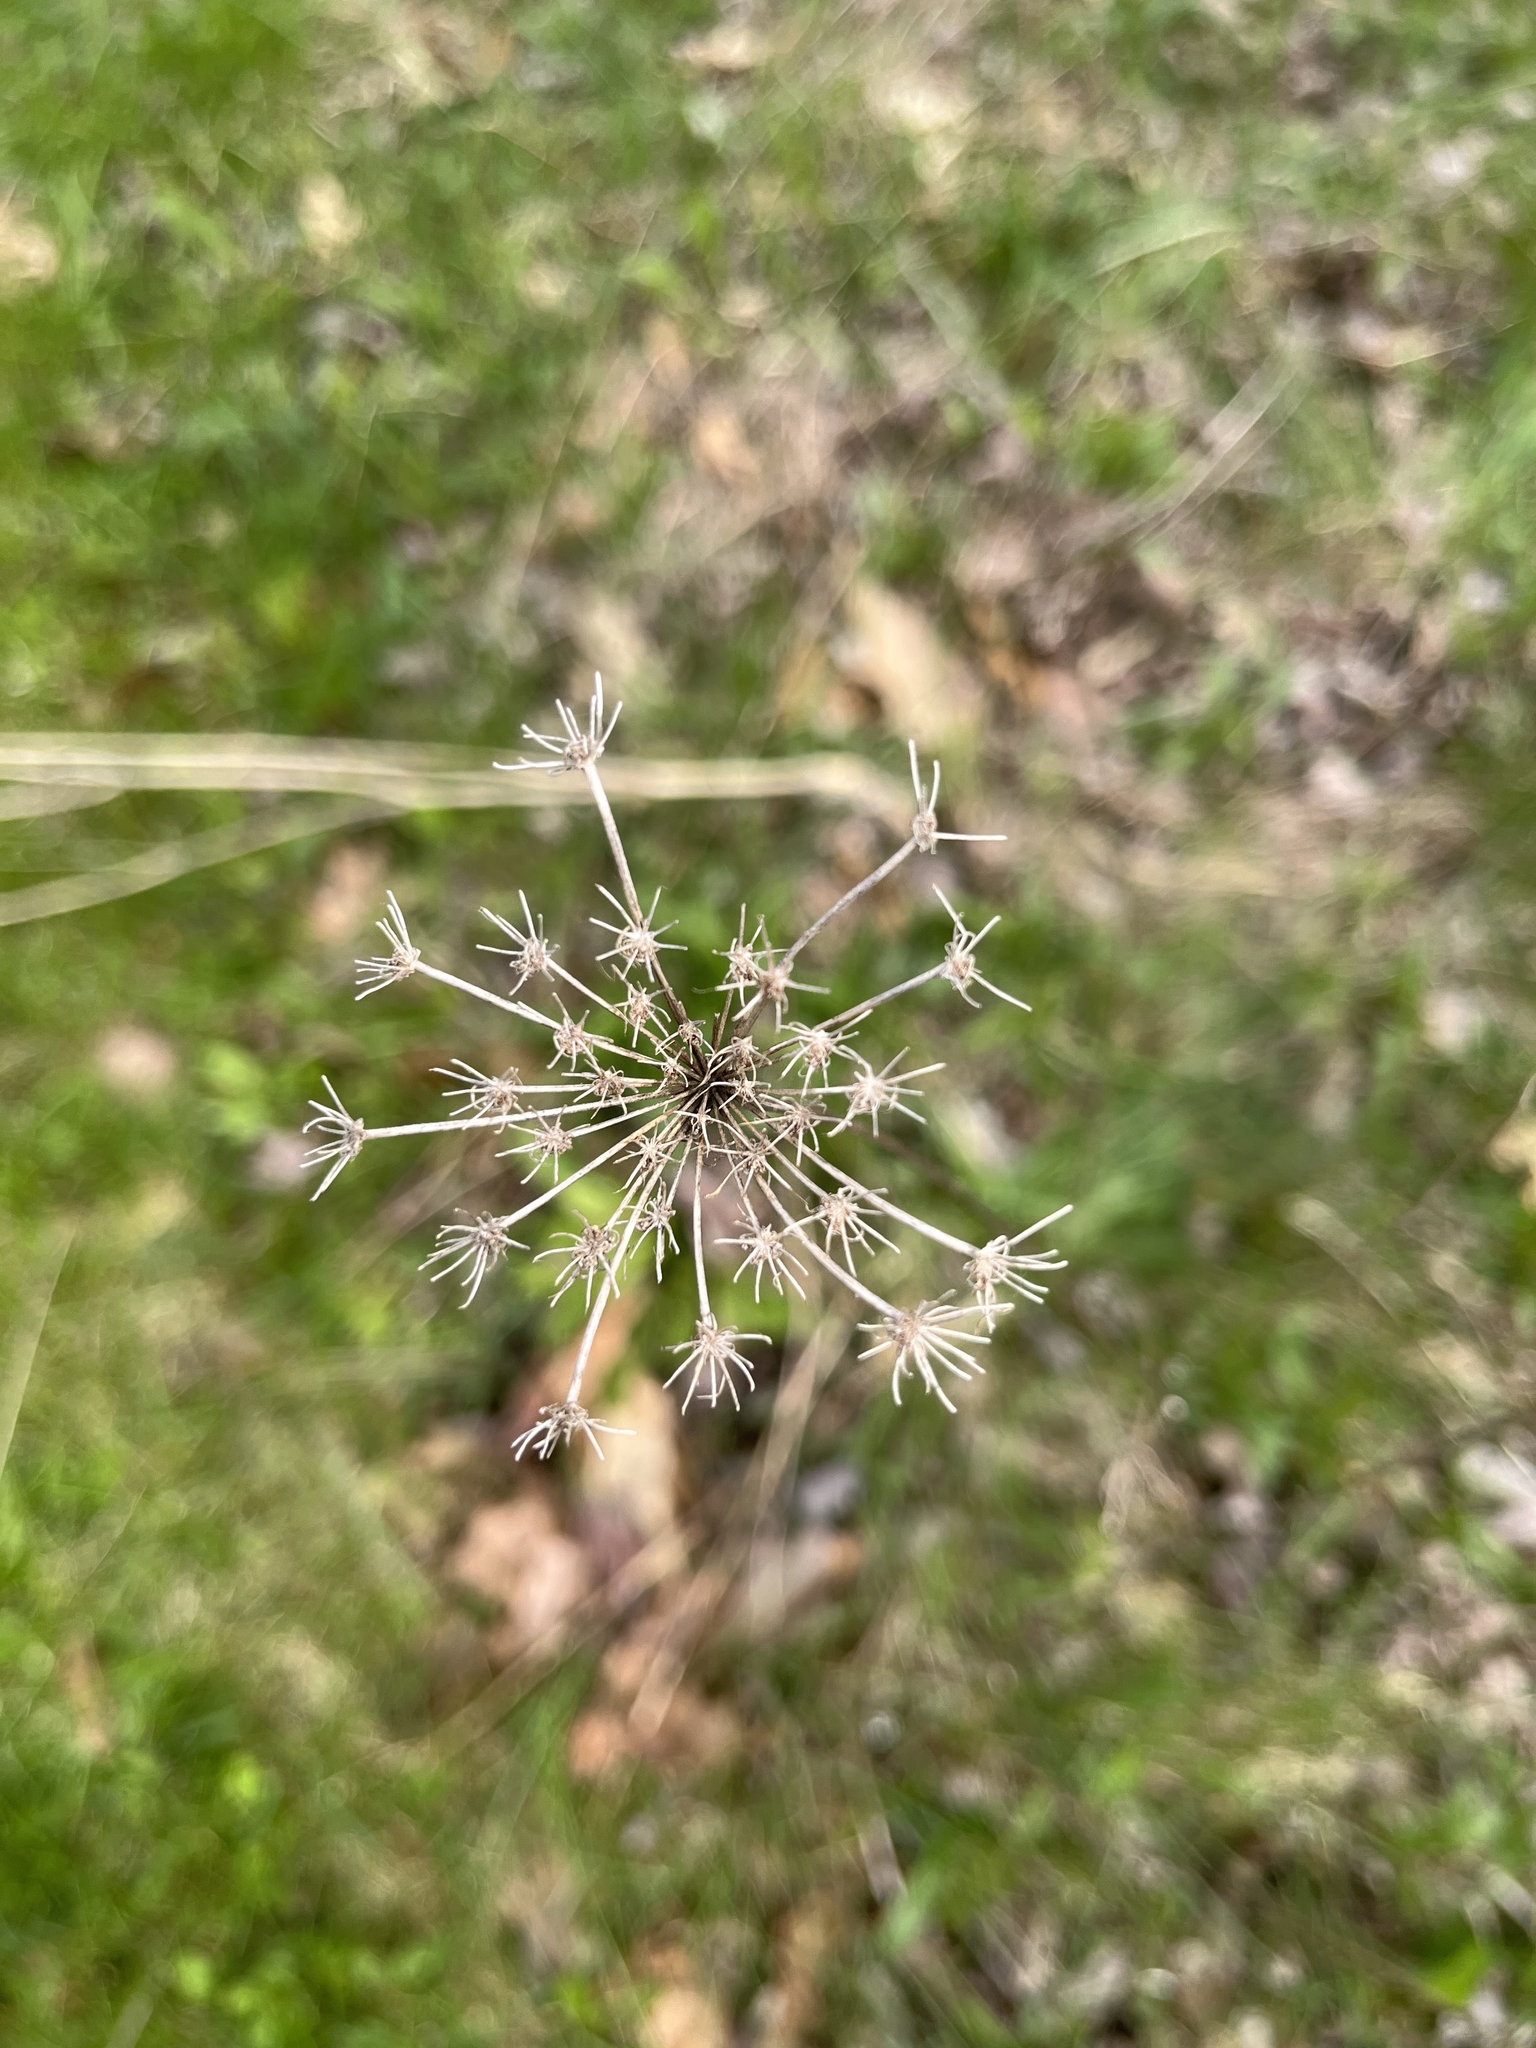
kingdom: Plantae
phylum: Tracheophyta
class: Magnoliopsida
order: Apiales
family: Apiaceae
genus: Daucus
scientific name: Daucus carota
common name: Wild carrot
